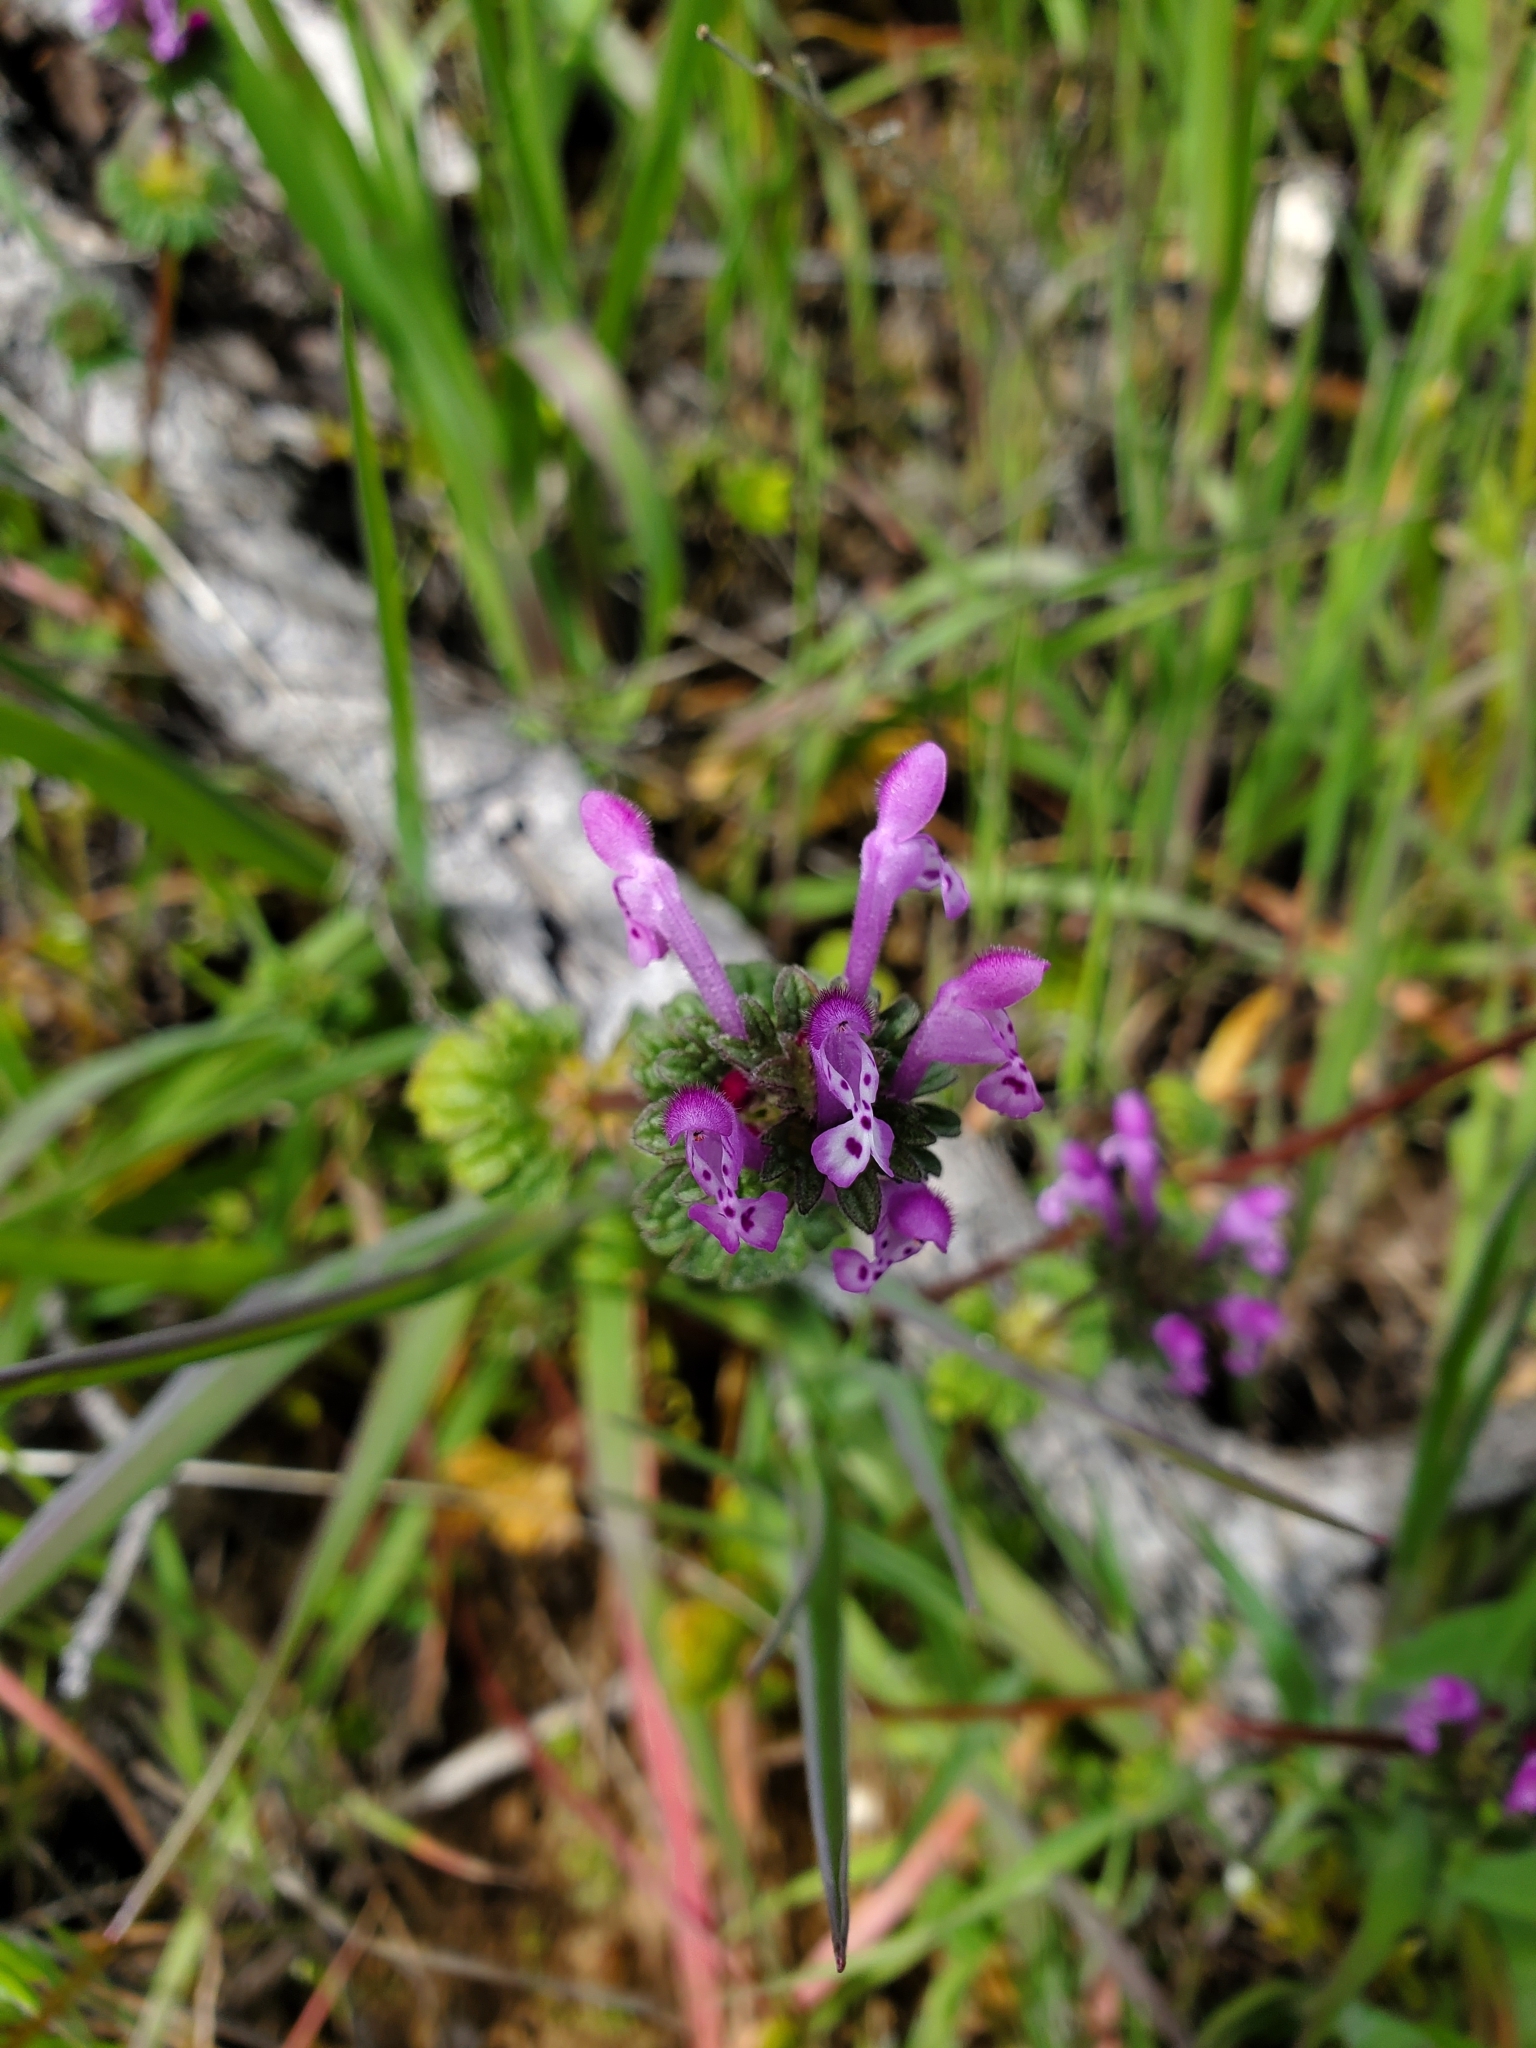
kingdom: Plantae
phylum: Tracheophyta
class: Magnoliopsida
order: Lamiales
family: Lamiaceae
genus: Lamium
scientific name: Lamium amplexicaule
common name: Henbit dead-nettle
